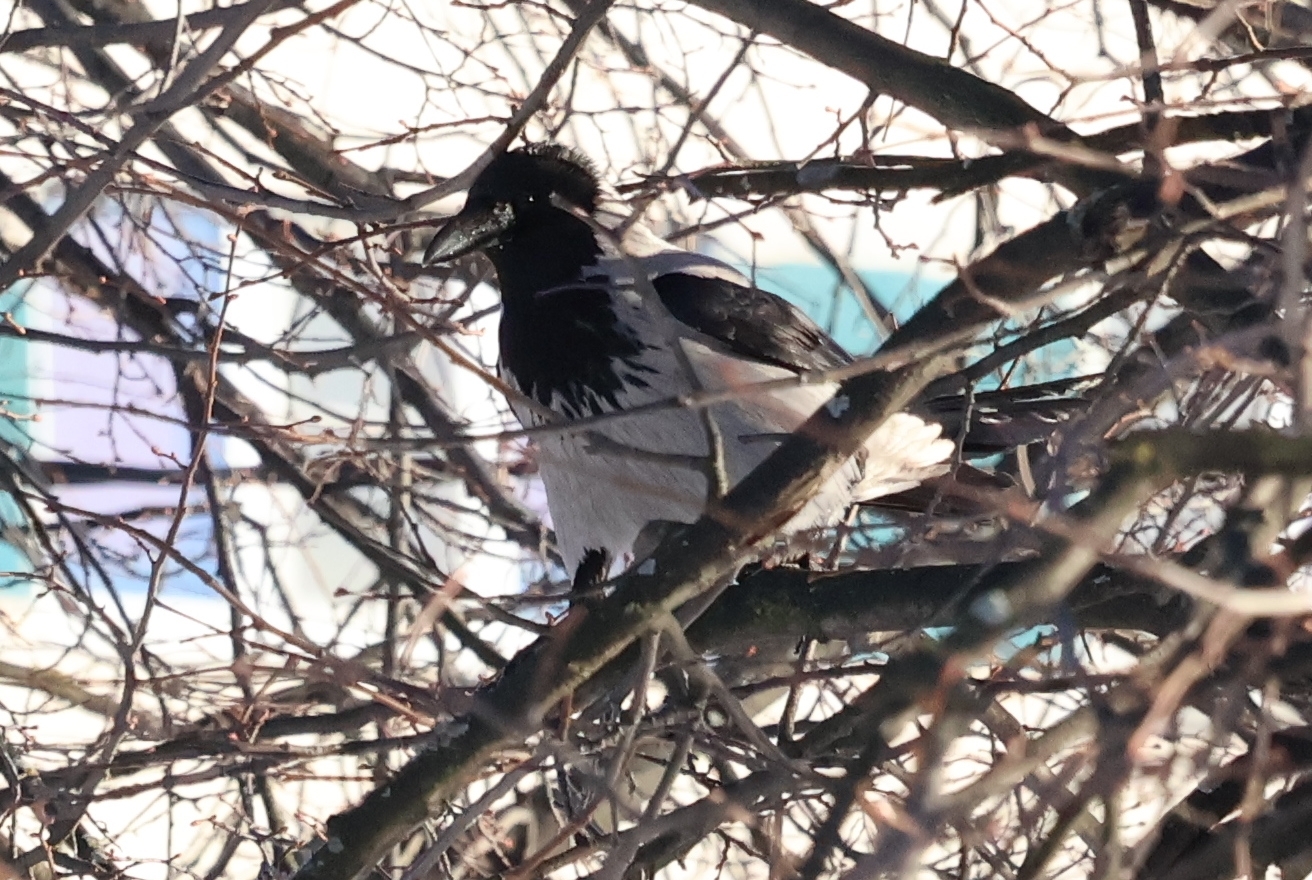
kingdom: Animalia
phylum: Chordata
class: Aves
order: Passeriformes
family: Corvidae
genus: Corvus
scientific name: Corvus cornix
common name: Hooded crow
